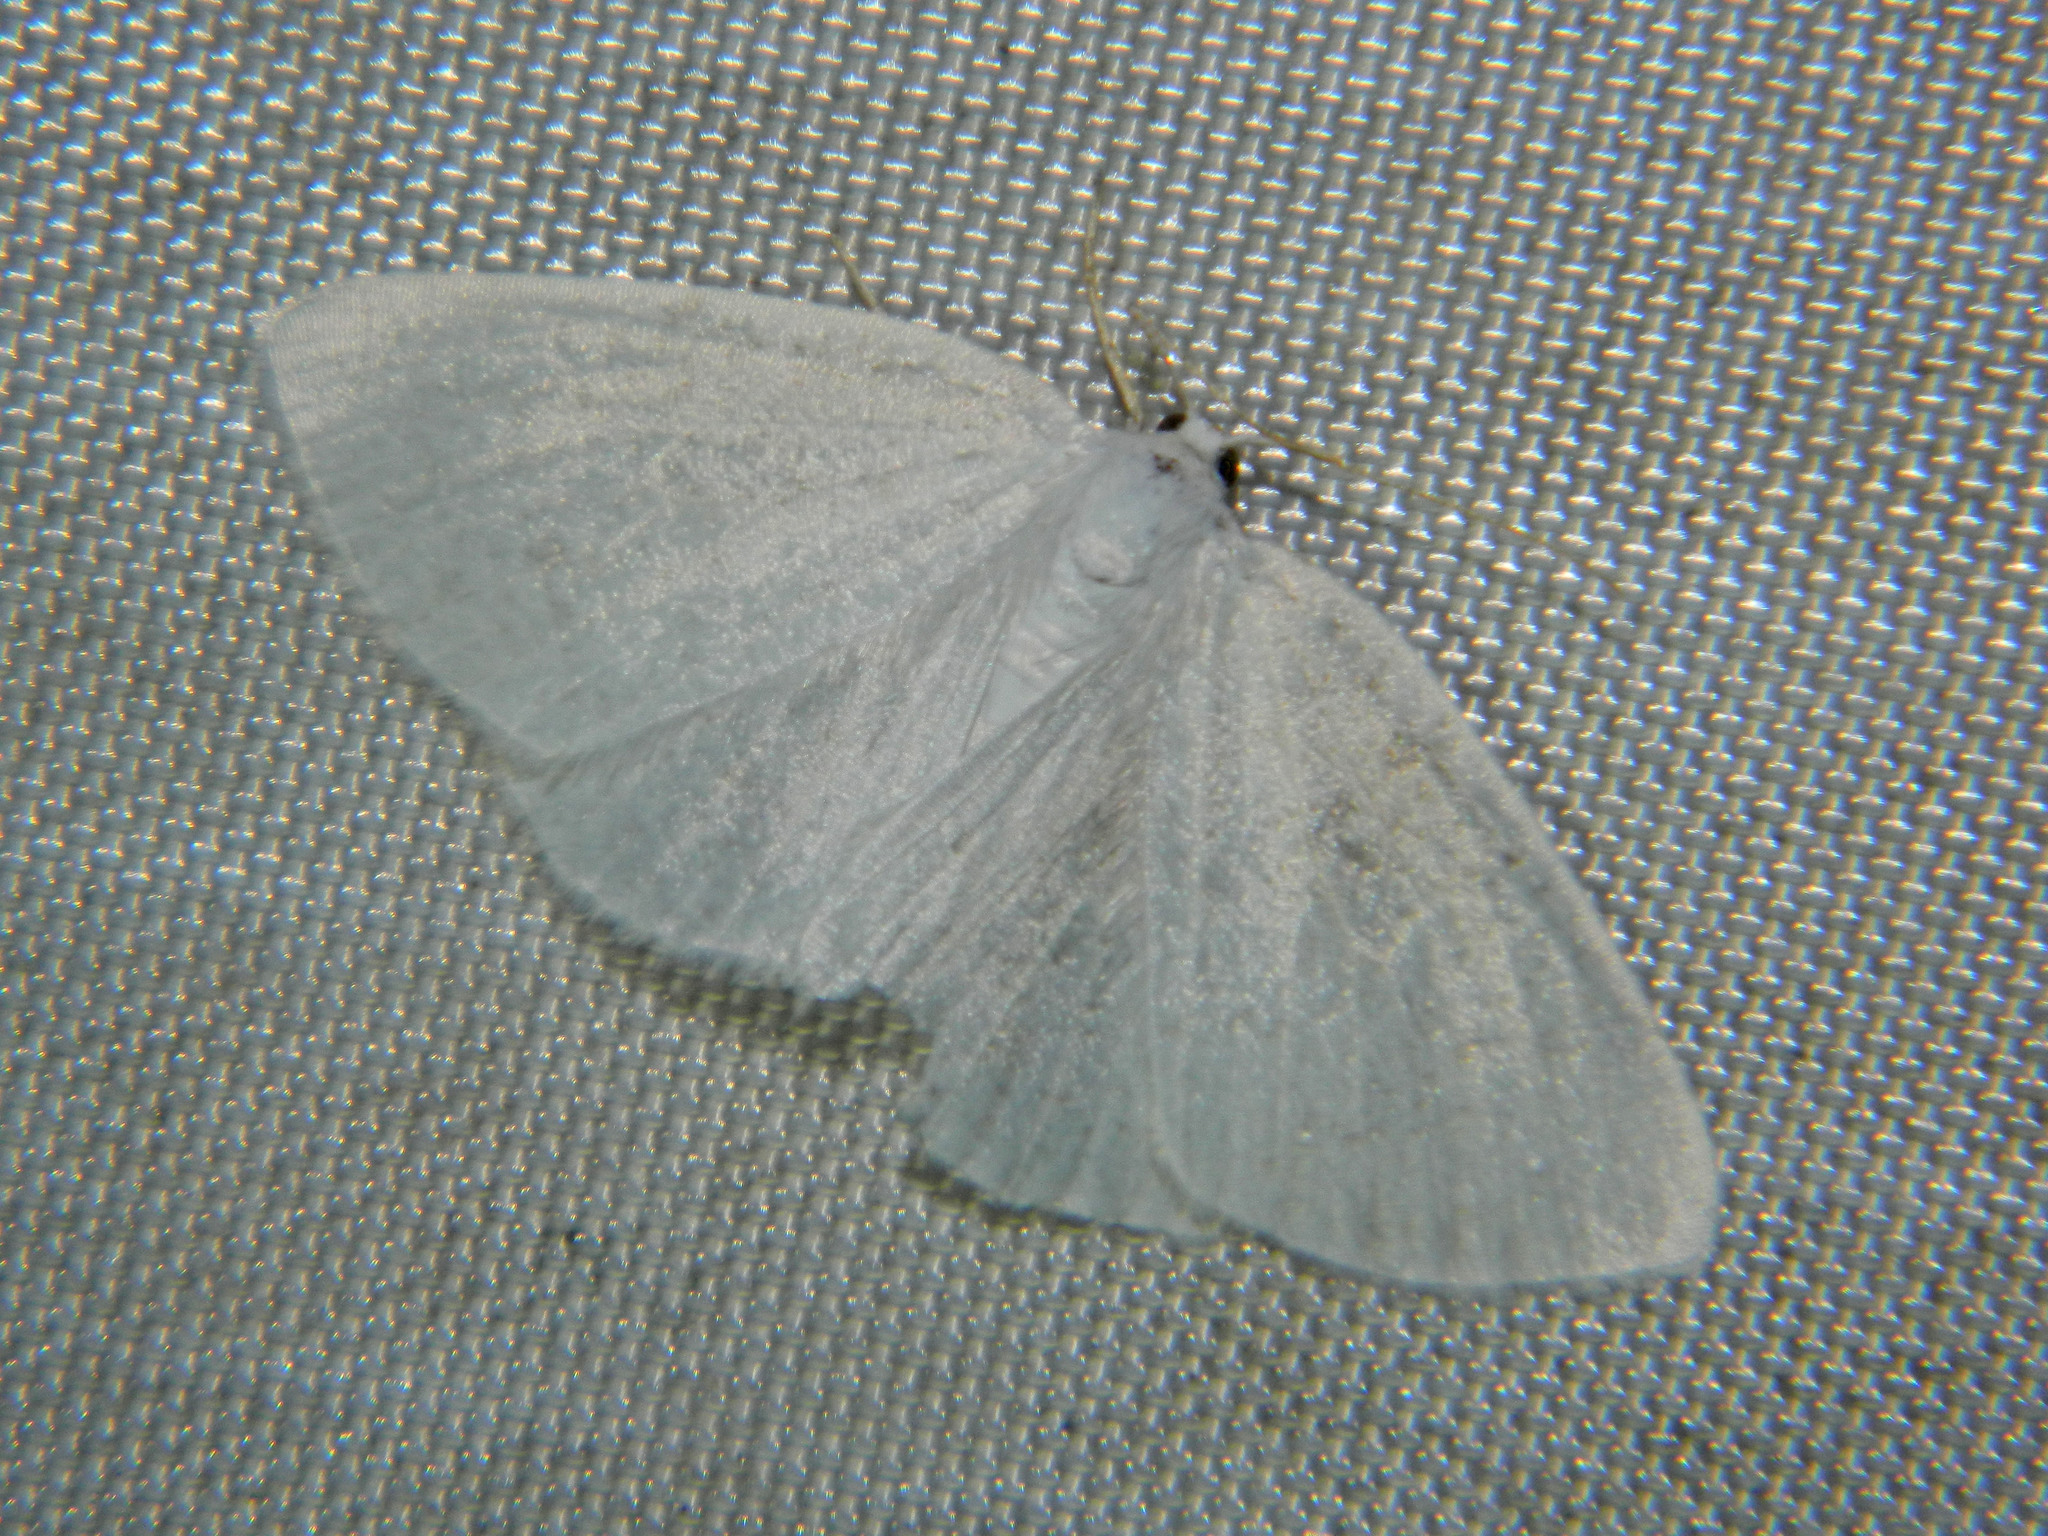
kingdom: Animalia
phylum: Arthropoda
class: Insecta
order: Lepidoptera
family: Geometridae
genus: Cabera
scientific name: Cabera variolaria
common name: Pink-striped willow spanworm
